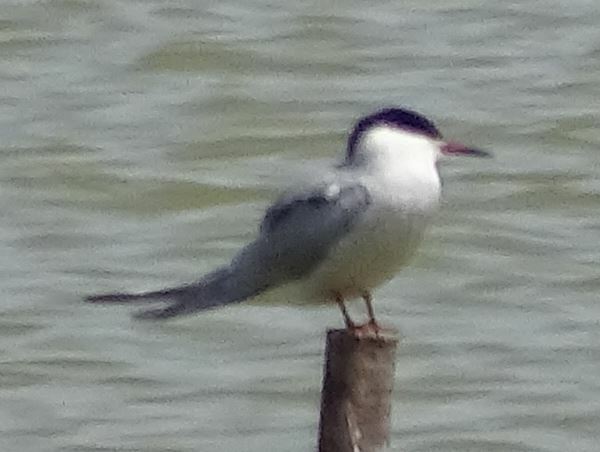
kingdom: Animalia
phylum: Chordata
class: Aves
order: Charadriiformes
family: Laridae
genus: Sterna
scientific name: Sterna hirundo
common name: Common tern
